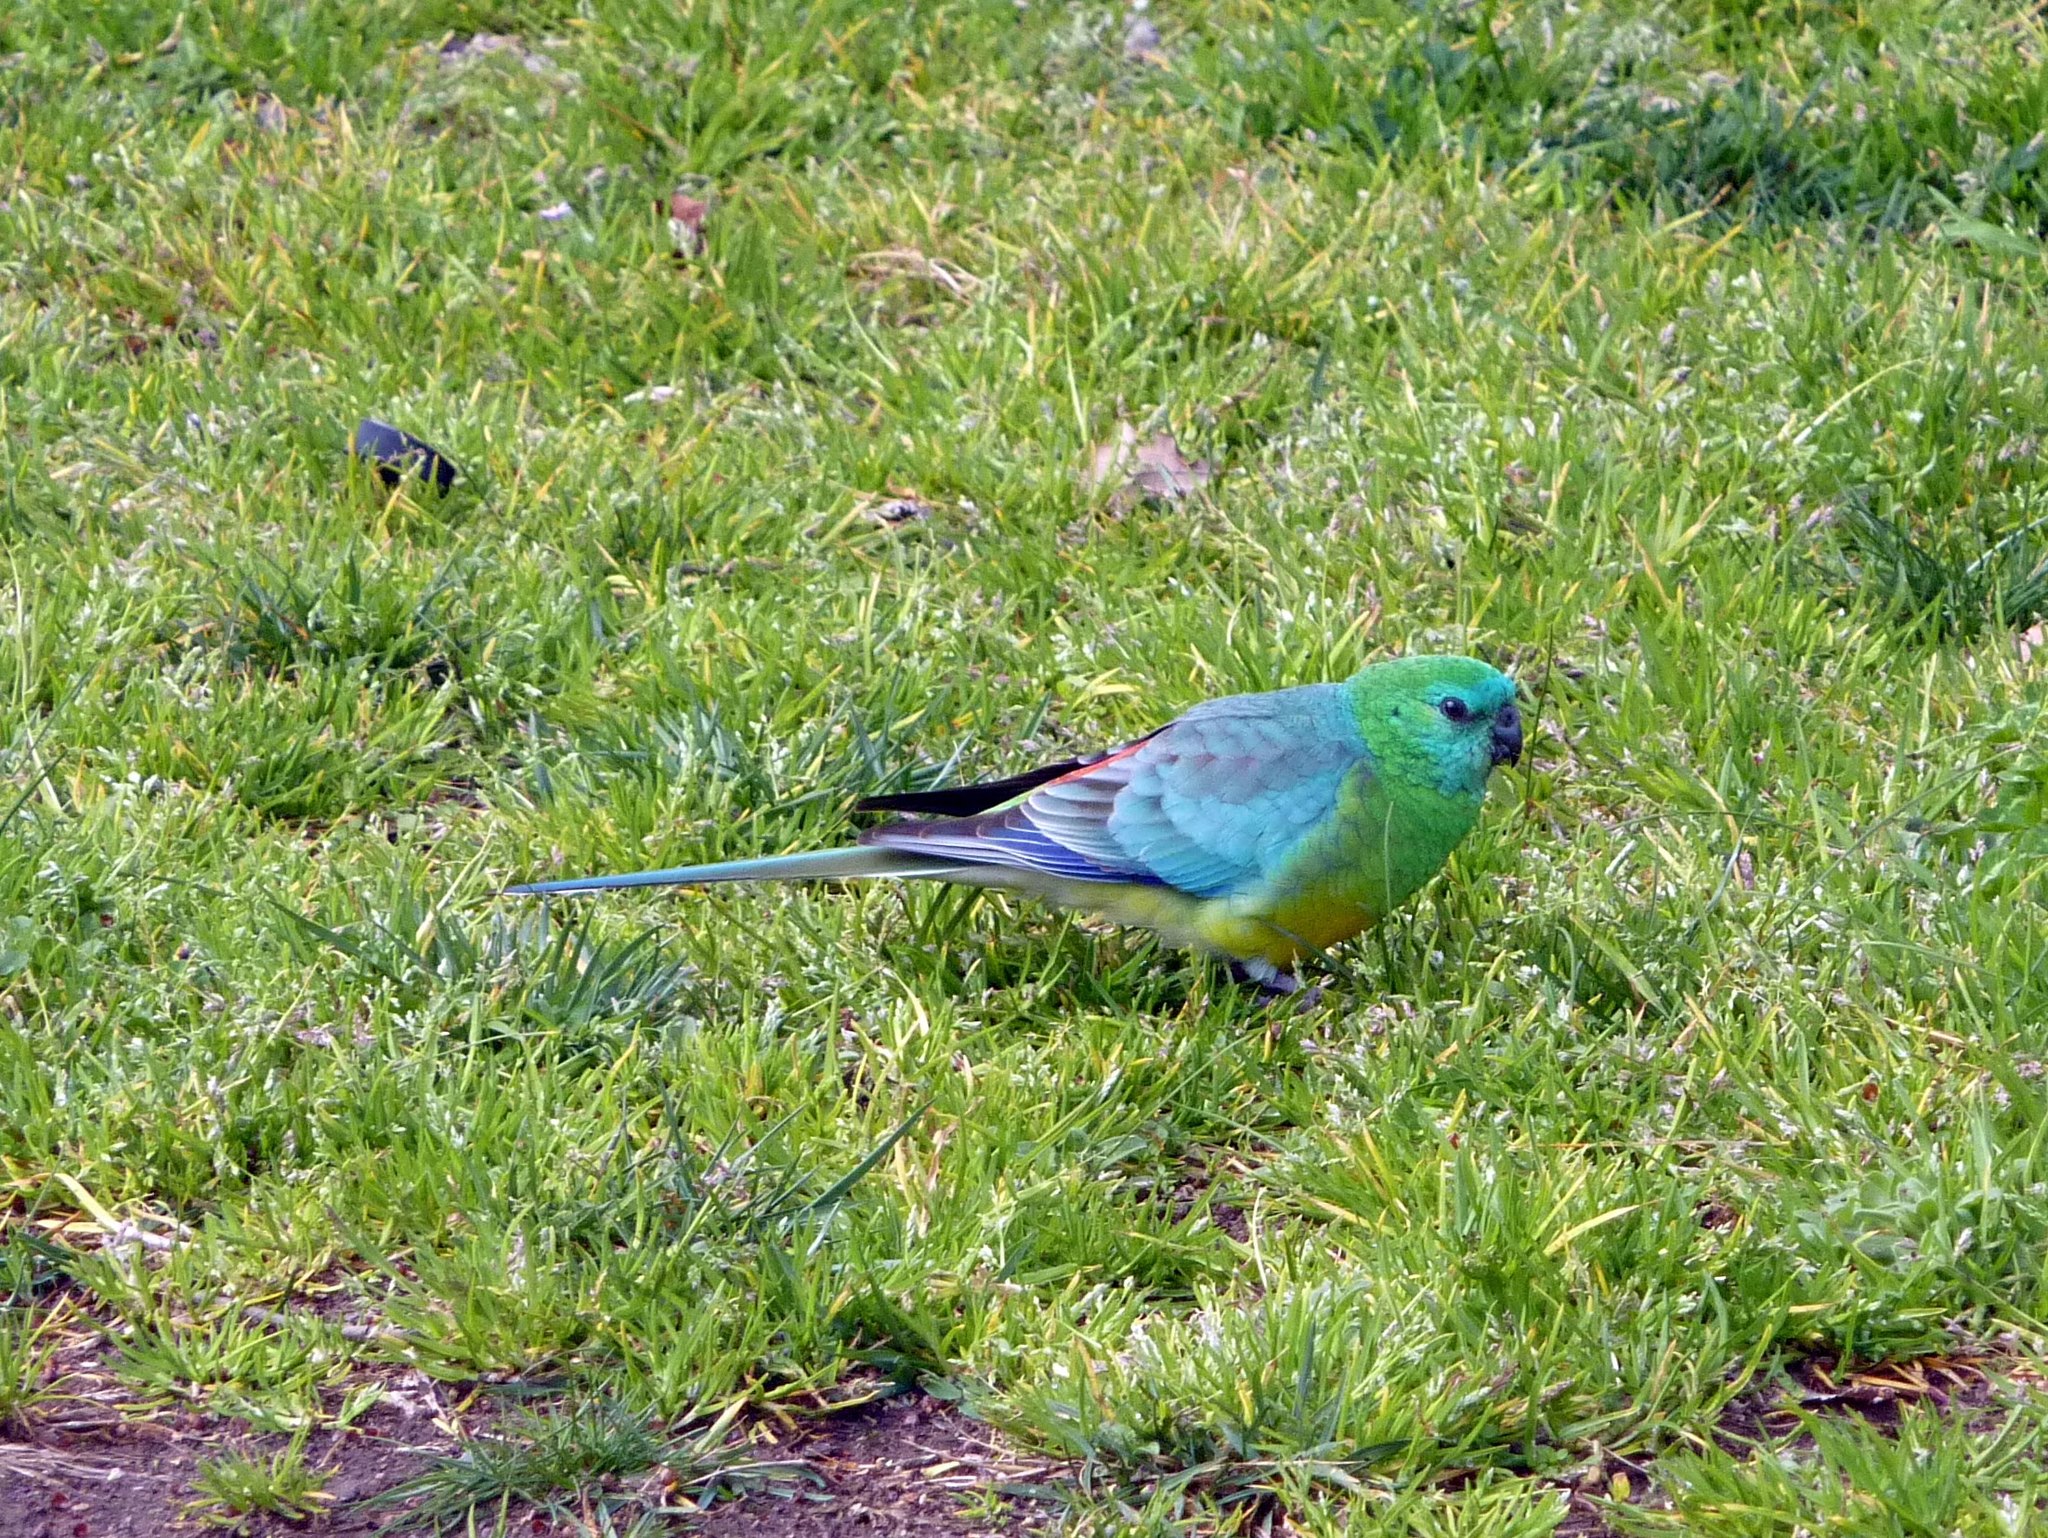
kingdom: Animalia
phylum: Chordata
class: Aves
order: Psittaciformes
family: Psittacidae
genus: Psephotus
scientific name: Psephotus haematonotus
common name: Red-rumped parrot
